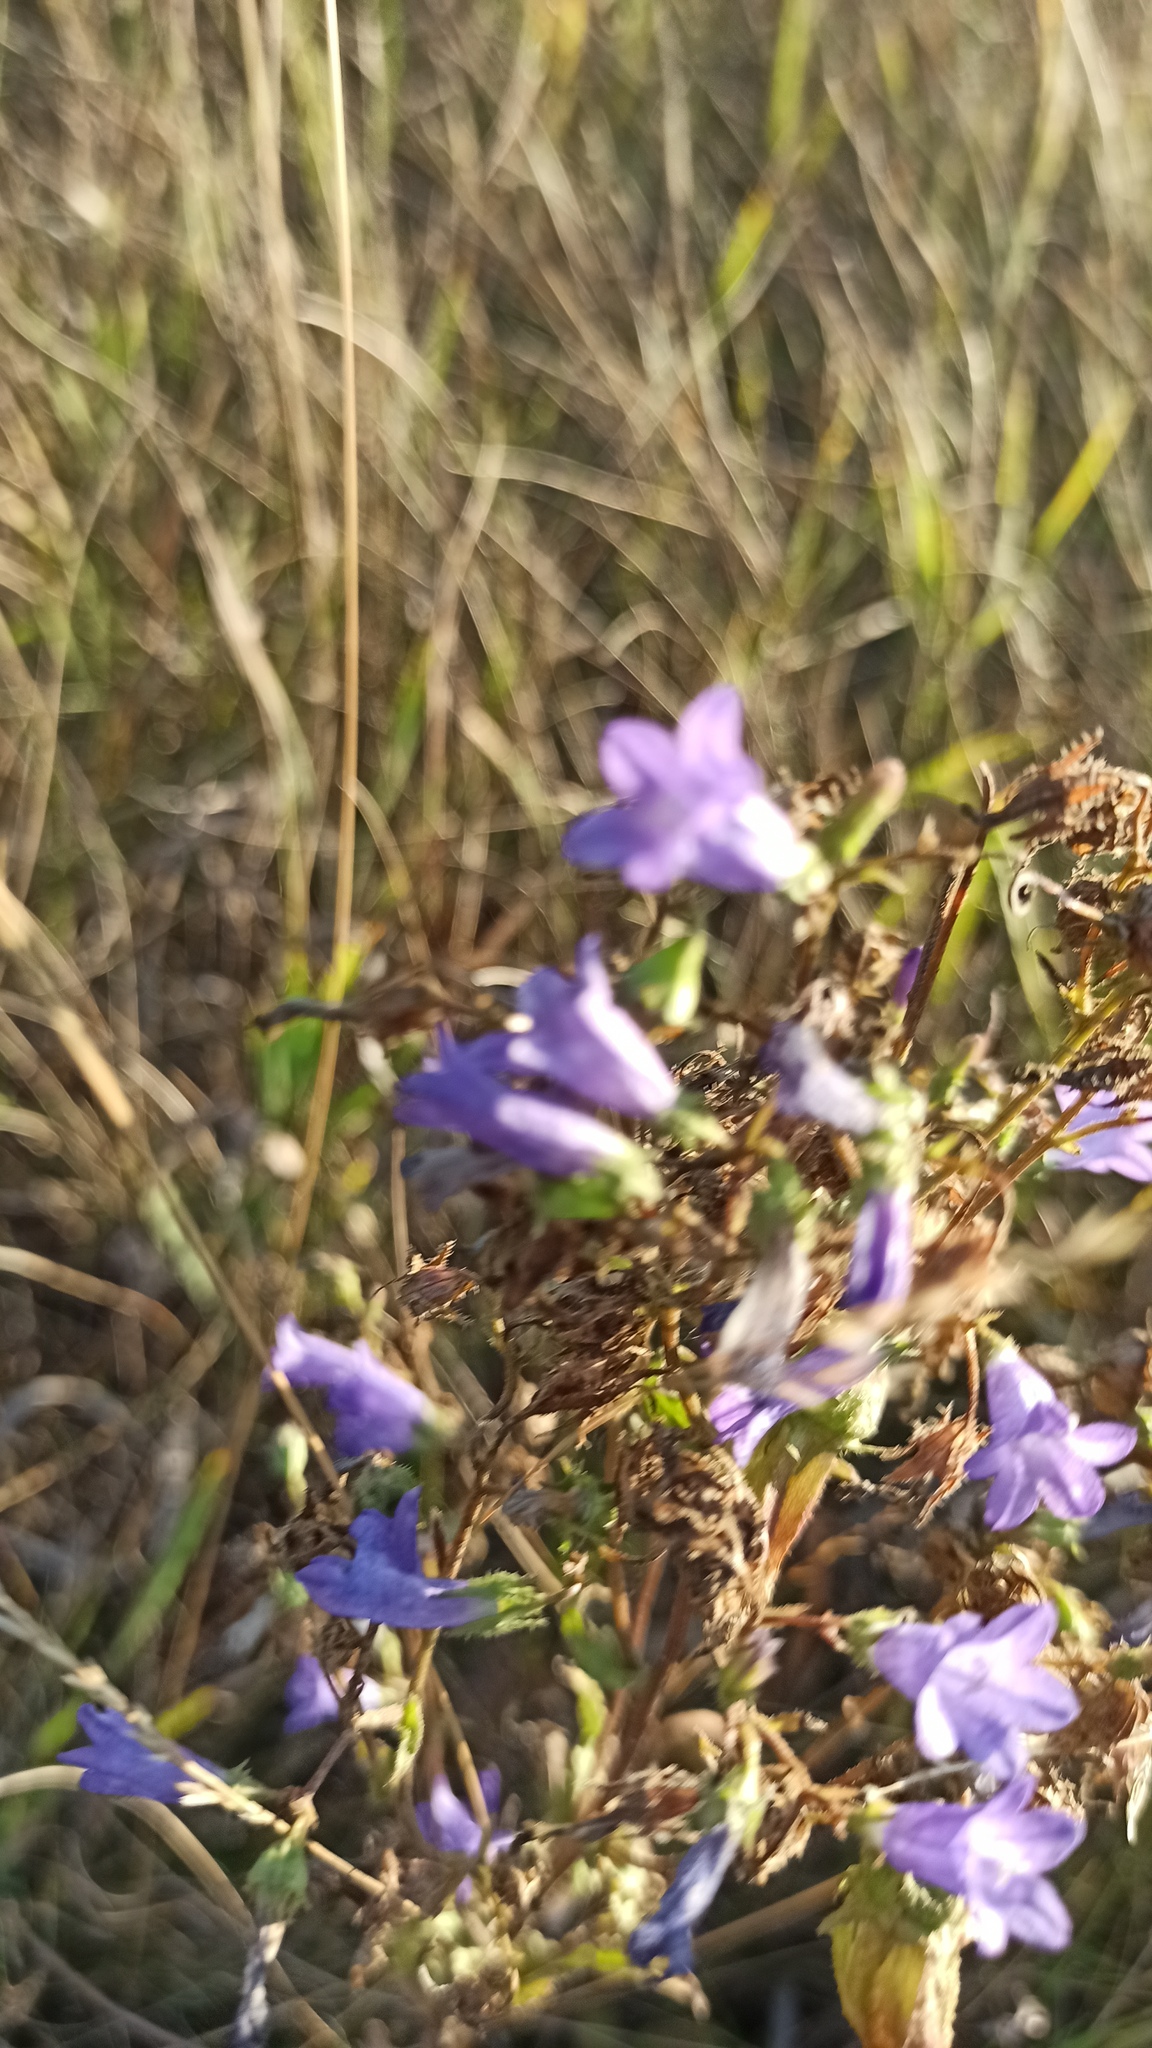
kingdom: Plantae
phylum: Tracheophyta
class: Magnoliopsida
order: Asterales
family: Campanulaceae
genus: Campanula
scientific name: Campanula sibirica
